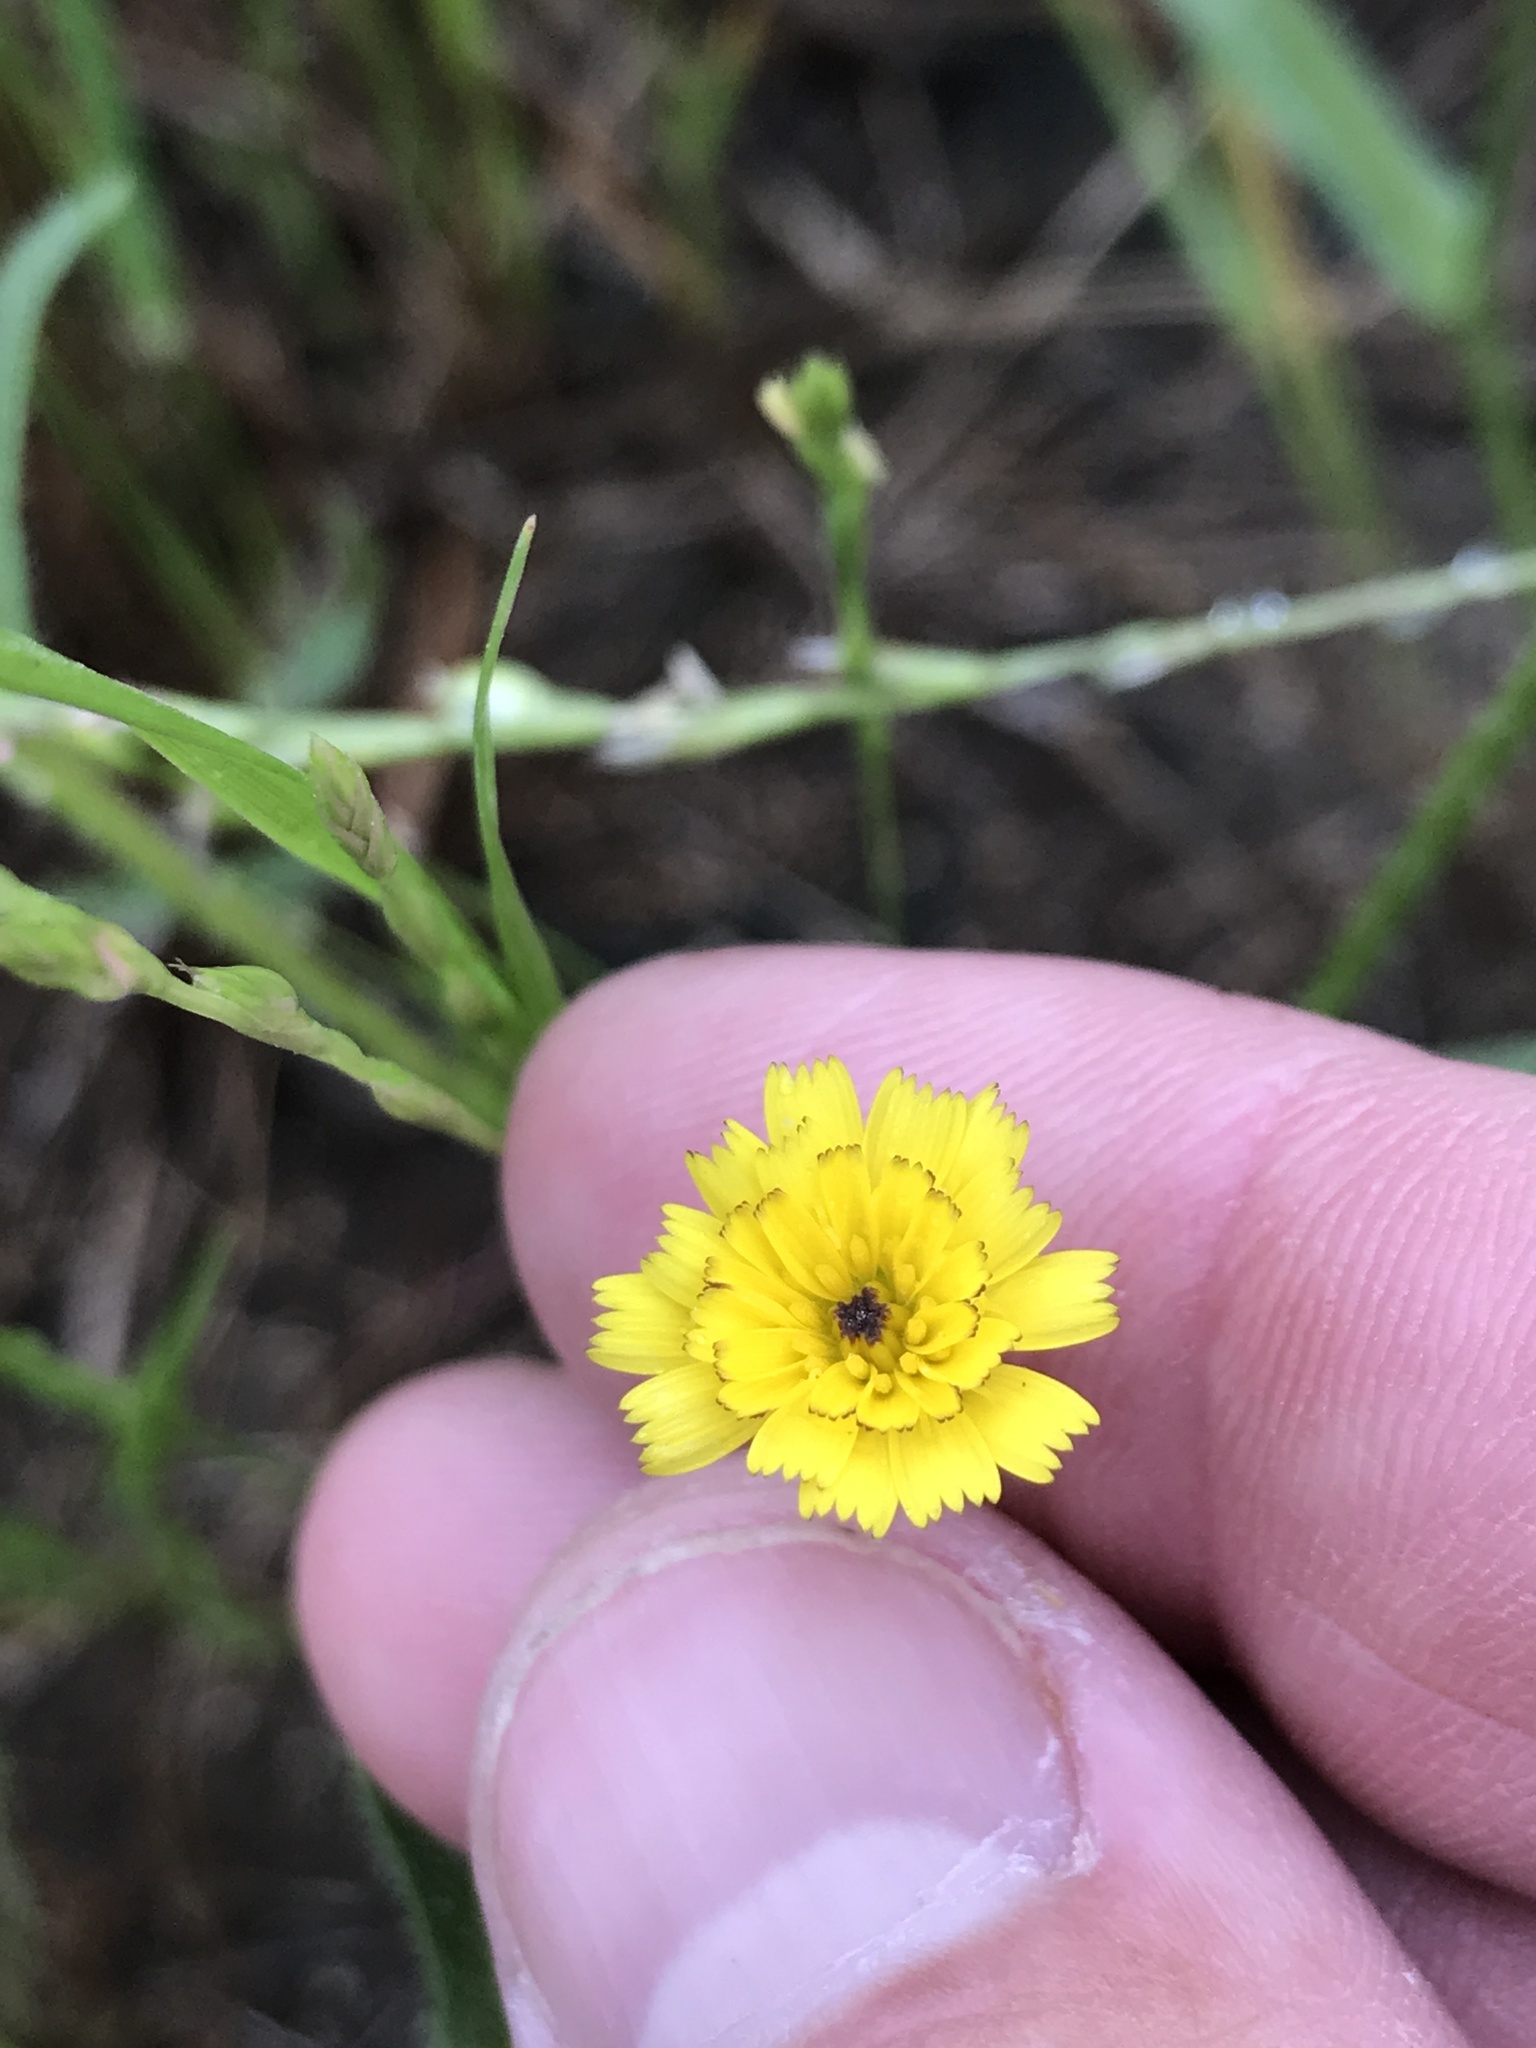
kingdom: Plantae
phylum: Tracheophyta
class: Magnoliopsida
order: Asterales
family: Asteraceae
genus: Hedypnois
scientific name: Hedypnois rhagadioloides
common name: Cretan weed
